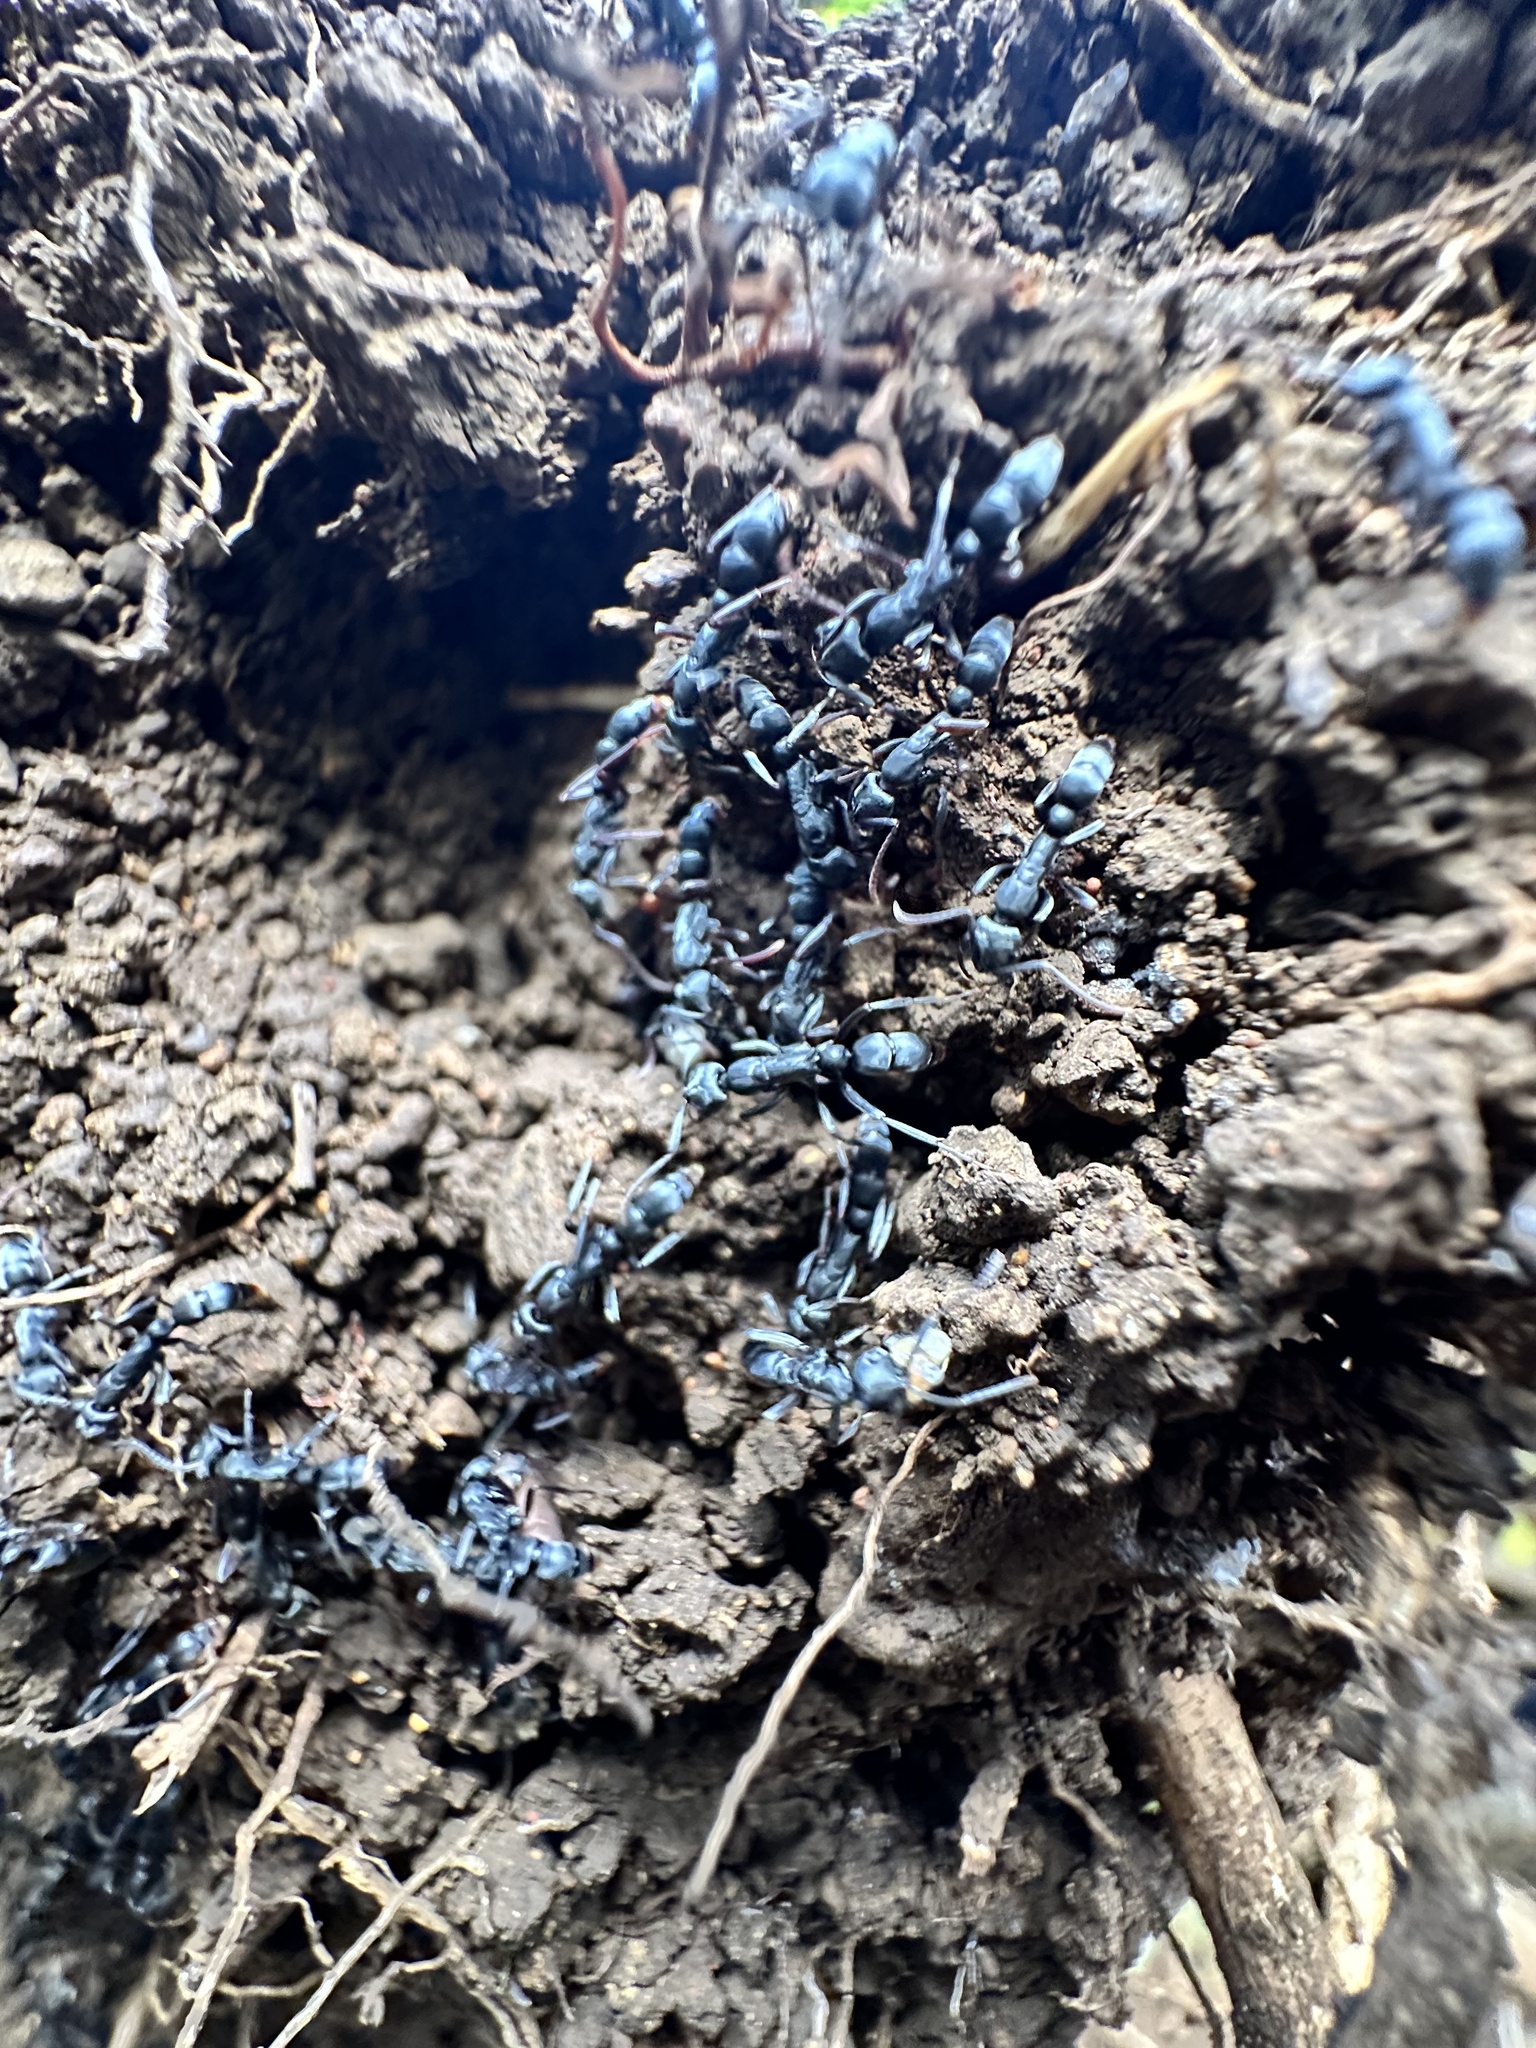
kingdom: Animalia
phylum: Arthropoda
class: Insecta
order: Hymenoptera
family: Formicidae
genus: Leptogenys
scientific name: Leptogenys falcigera
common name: Ant
